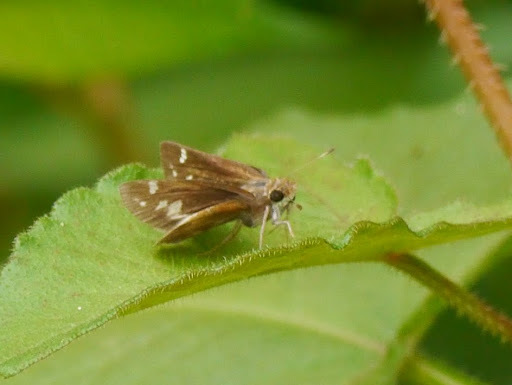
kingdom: Animalia
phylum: Arthropoda
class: Insecta
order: Lepidoptera
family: Hesperiidae
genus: Lon
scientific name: Lon zabulon
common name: Zabulon skipper
